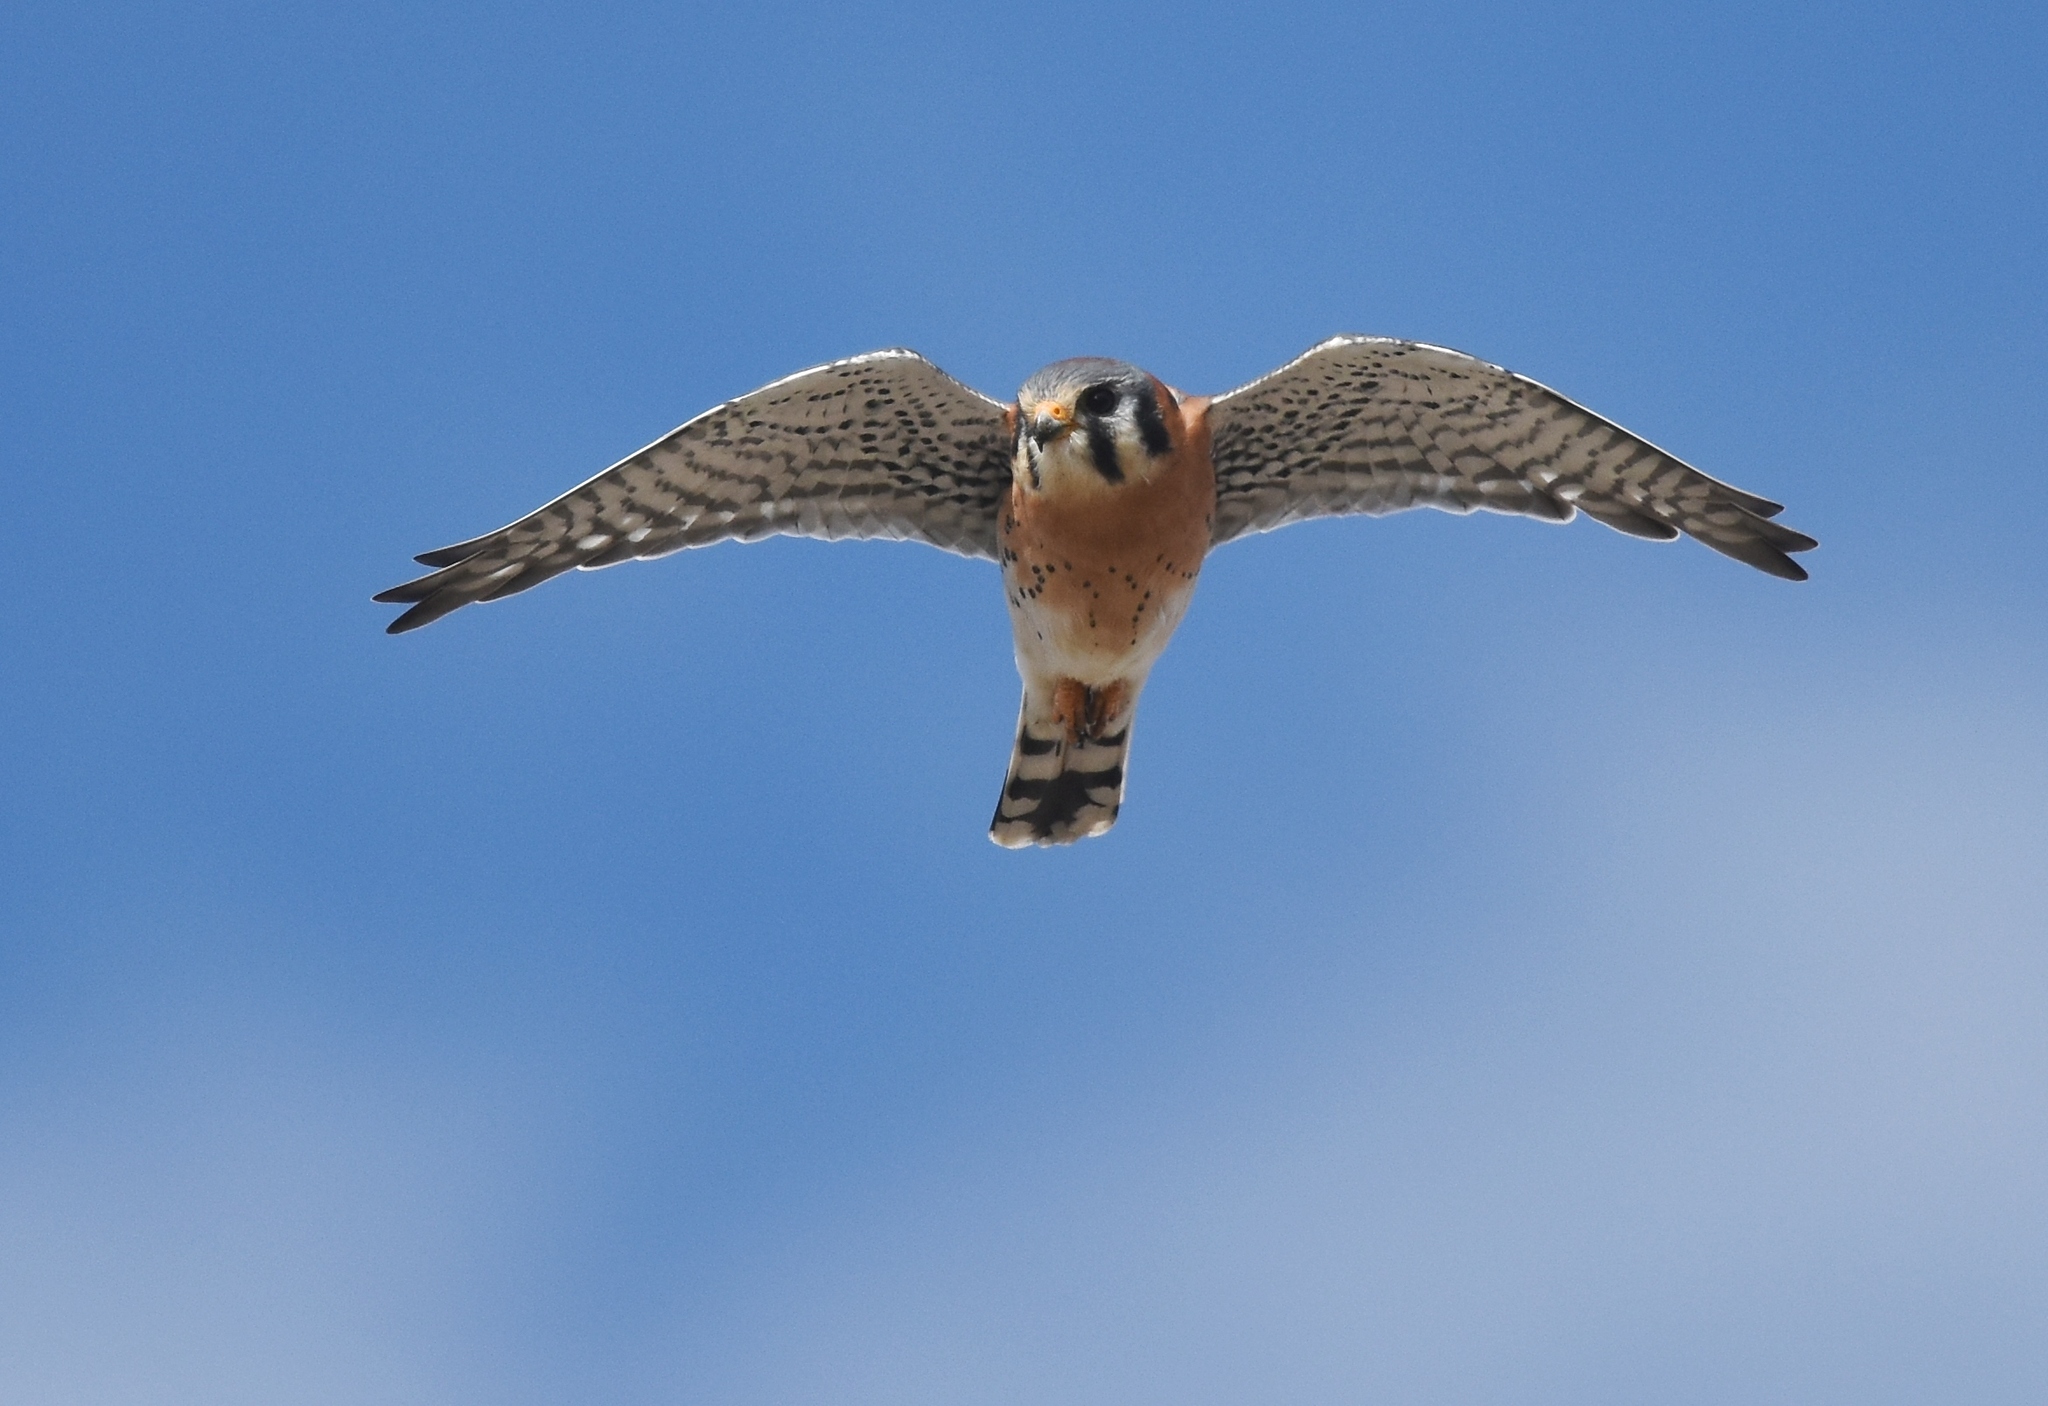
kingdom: Animalia
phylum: Chordata
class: Aves
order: Falconiformes
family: Falconidae
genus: Falco
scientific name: Falco sparverius
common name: American kestrel
